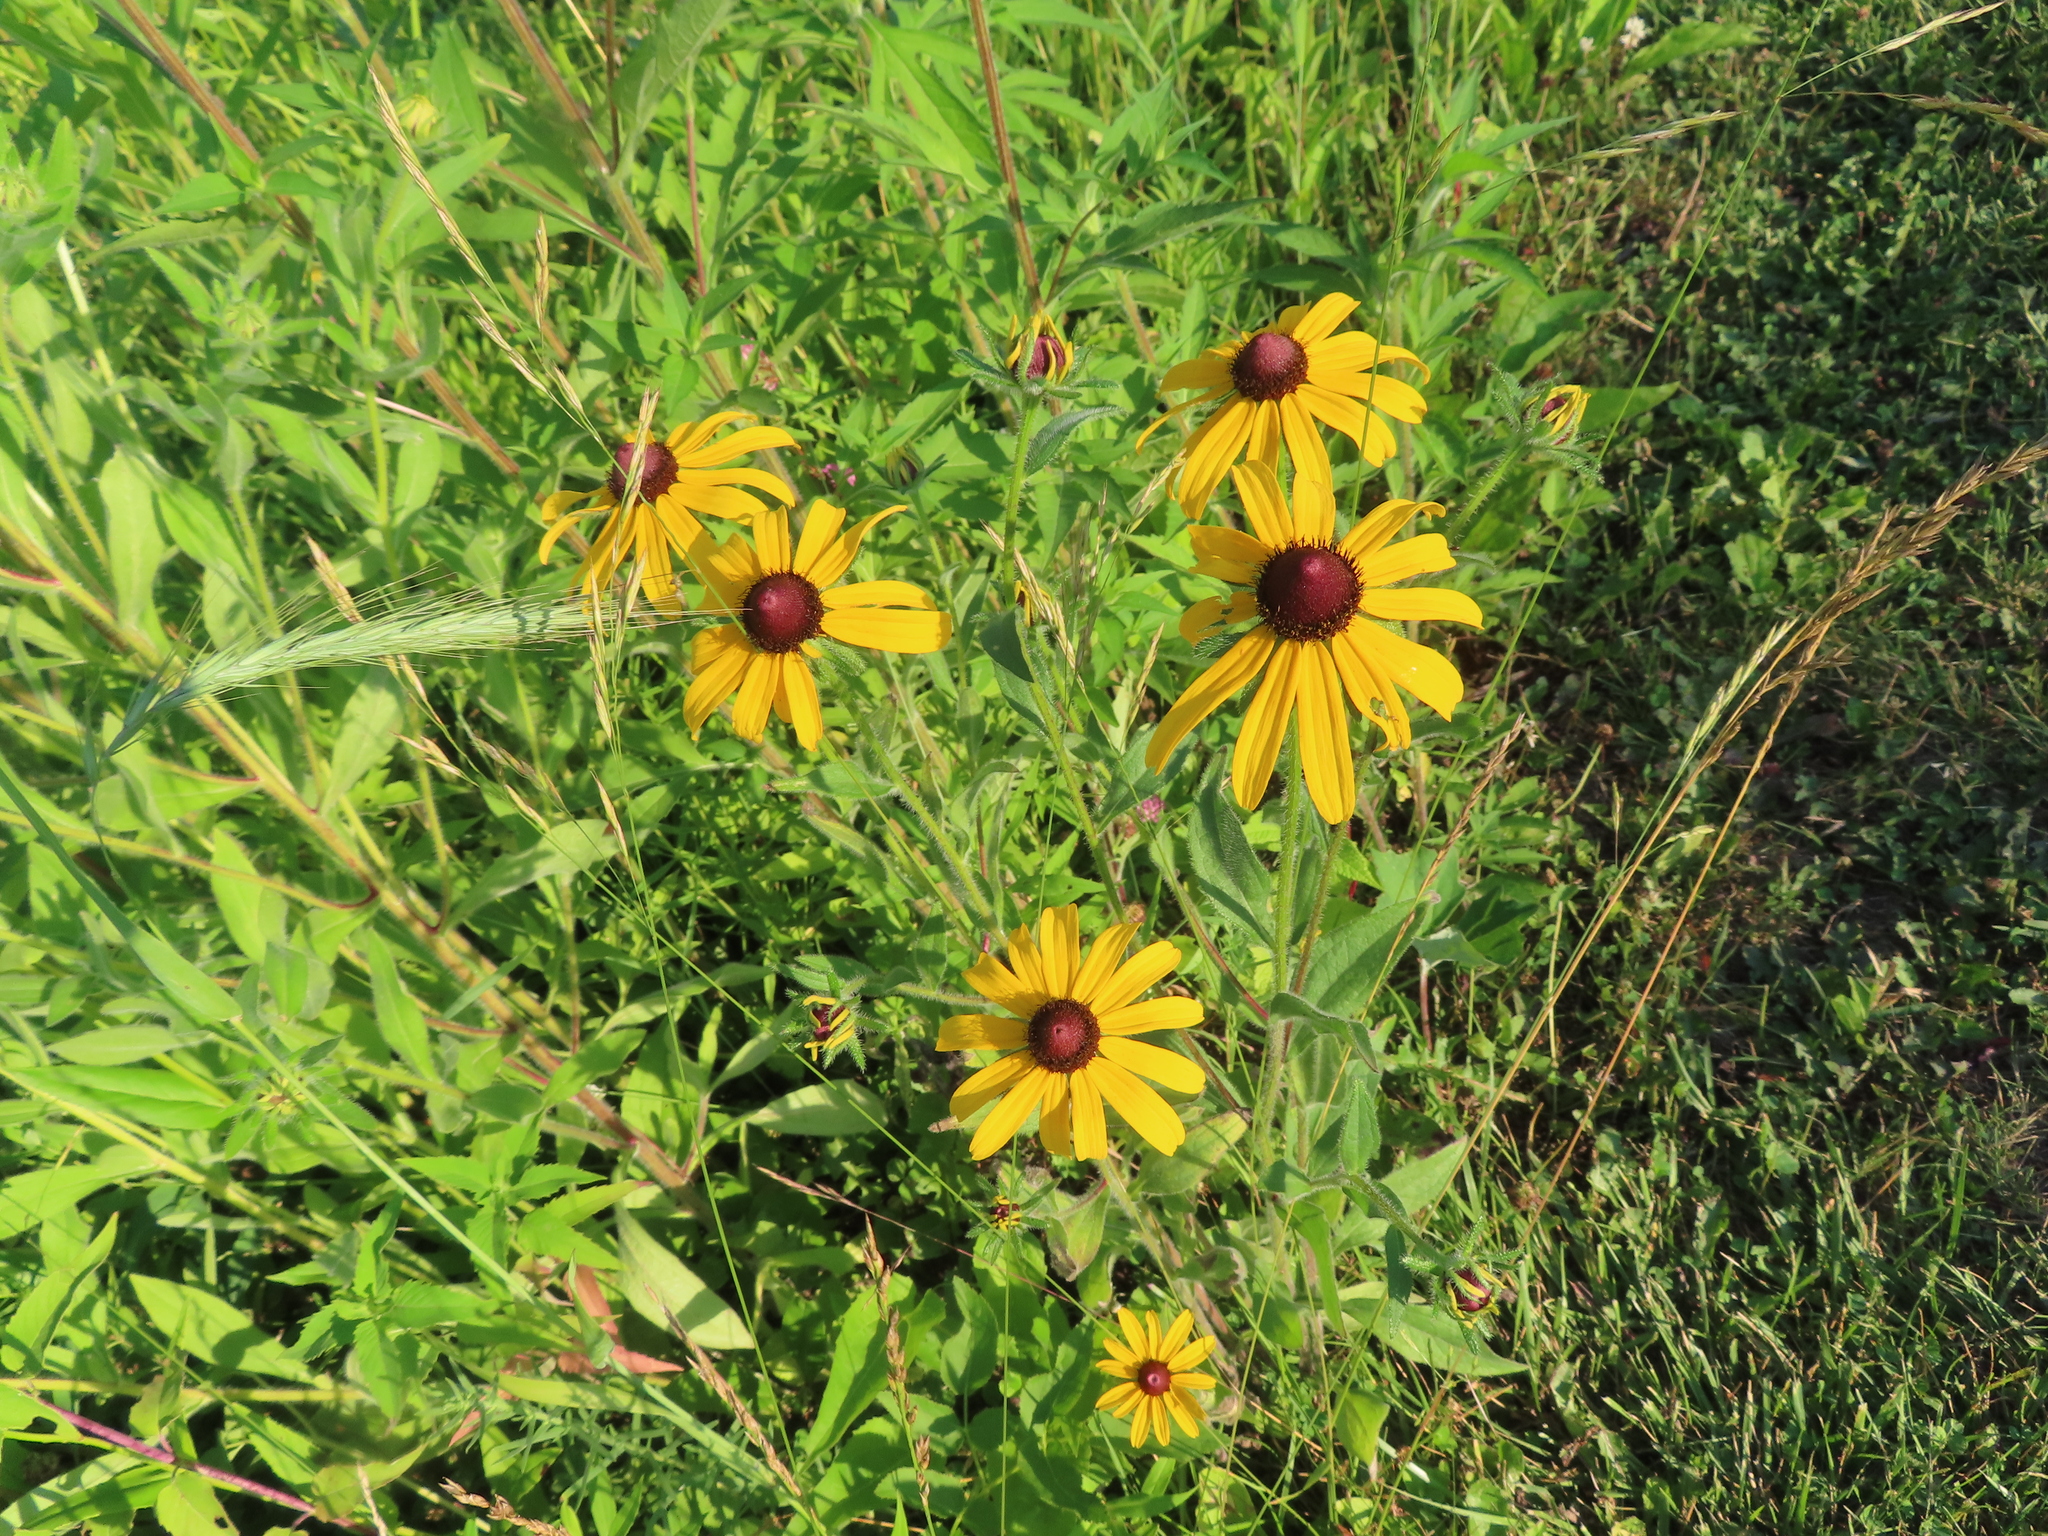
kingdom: Plantae
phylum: Tracheophyta
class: Magnoliopsida
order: Asterales
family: Asteraceae
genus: Rudbeckia
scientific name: Rudbeckia hirta
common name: Black-eyed-susan
